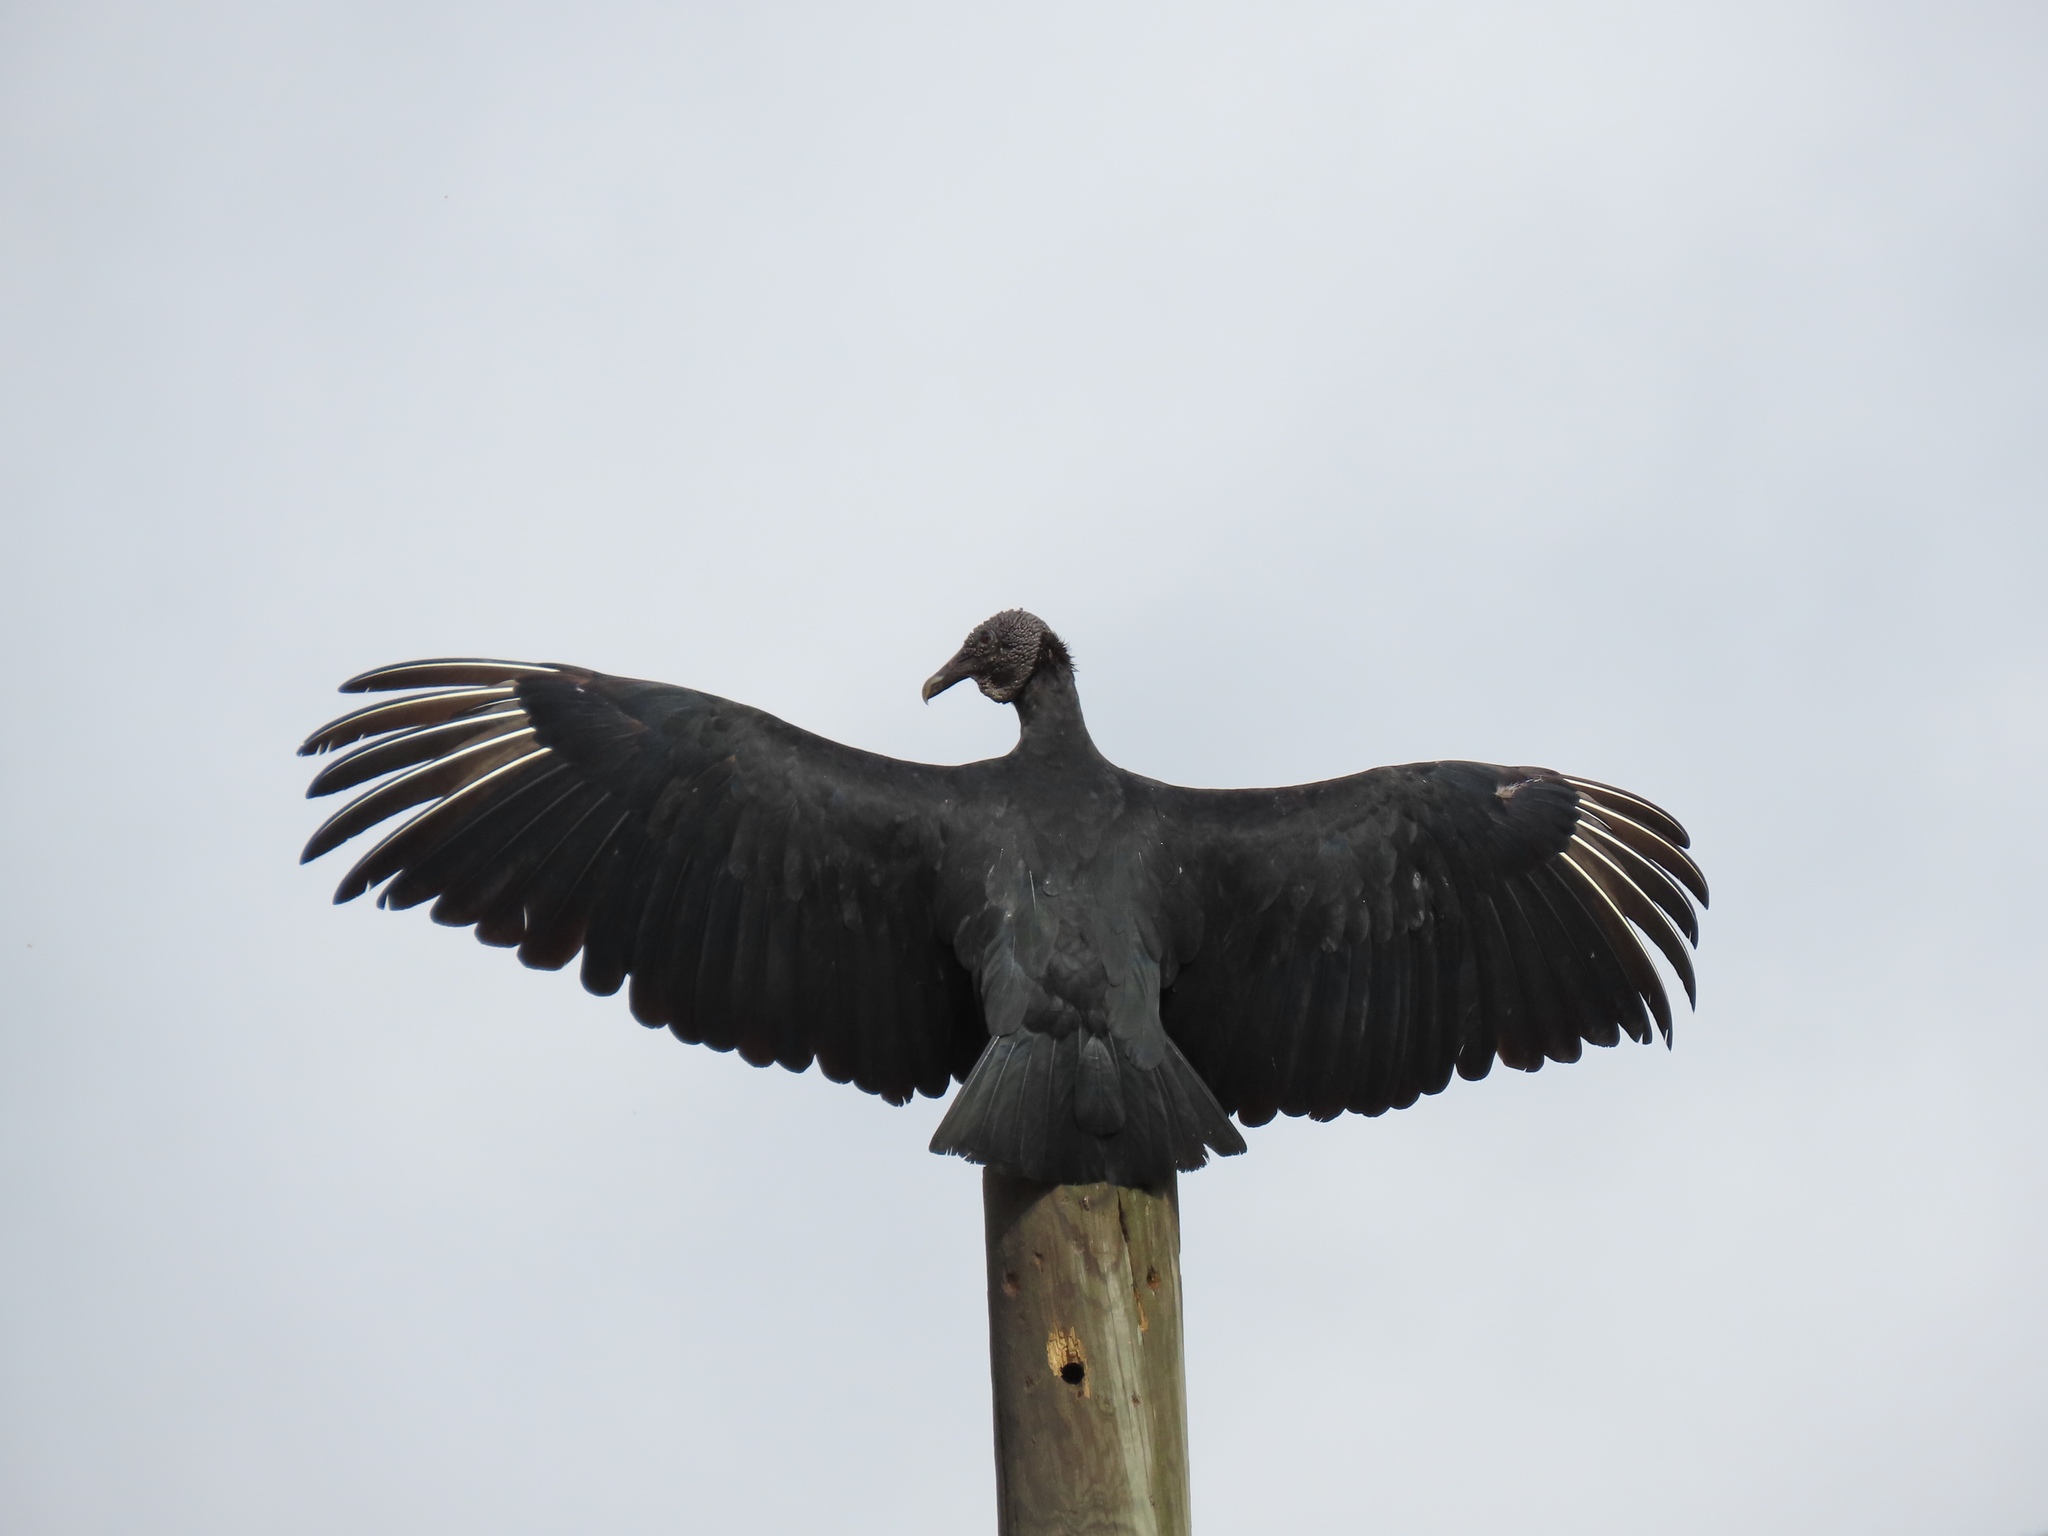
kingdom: Animalia
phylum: Chordata
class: Aves
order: Accipitriformes
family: Cathartidae
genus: Coragyps
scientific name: Coragyps atratus
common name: Black vulture
